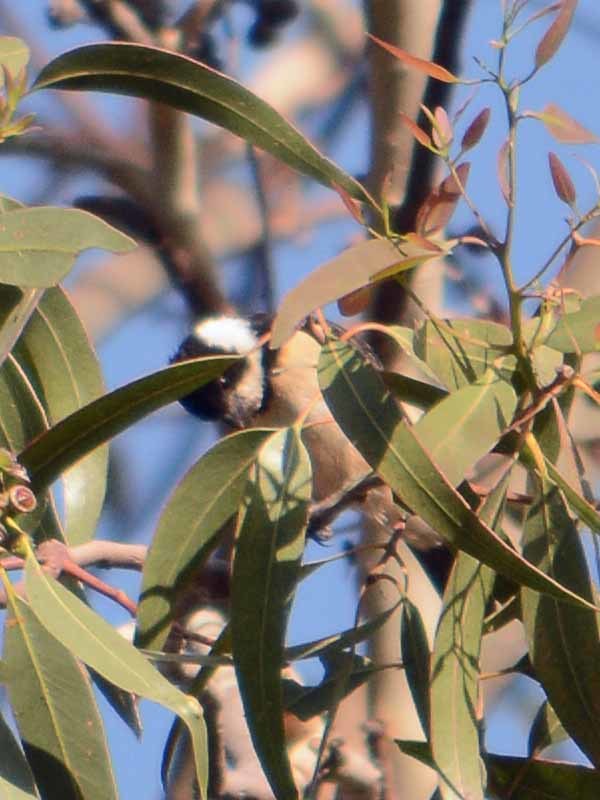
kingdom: Animalia
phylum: Chordata
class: Aves
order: Passeriformes
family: Thraupidae
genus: Sporophila
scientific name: Sporophila torqueola
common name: White-collared seedeater
